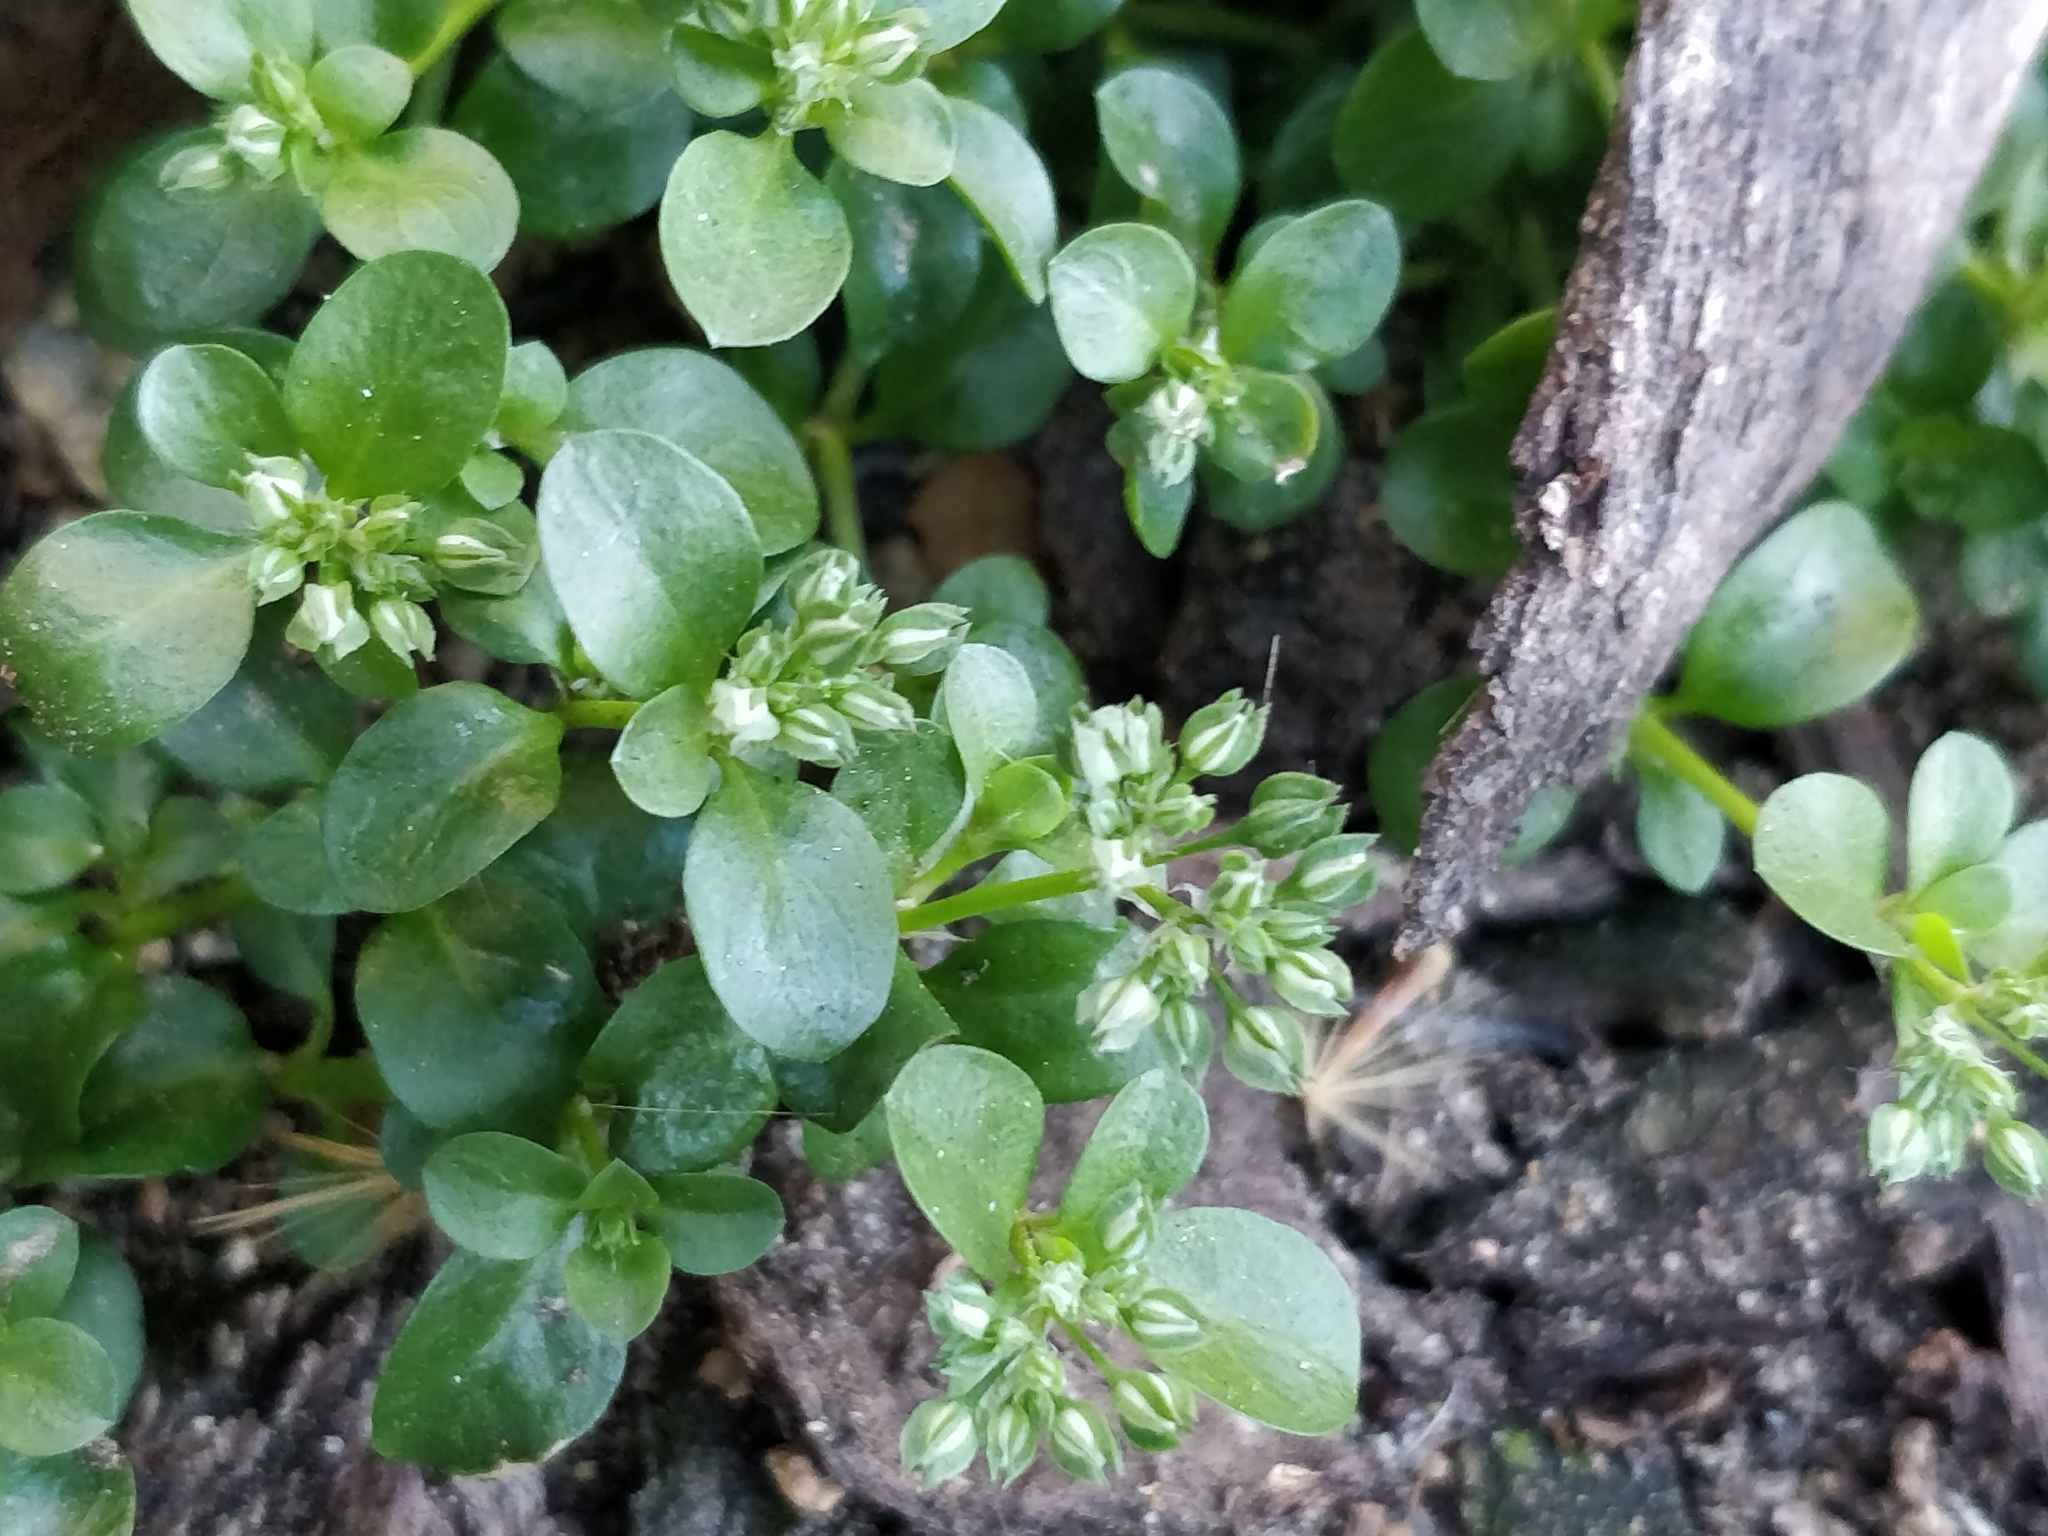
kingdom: Plantae
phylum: Tracheophyta
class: Magnoliopsida
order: Caryophyllales
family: Caryophyllaceae
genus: Polycarpon
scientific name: Polycarpon tetraphyllum
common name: Four-leaved all-seed
